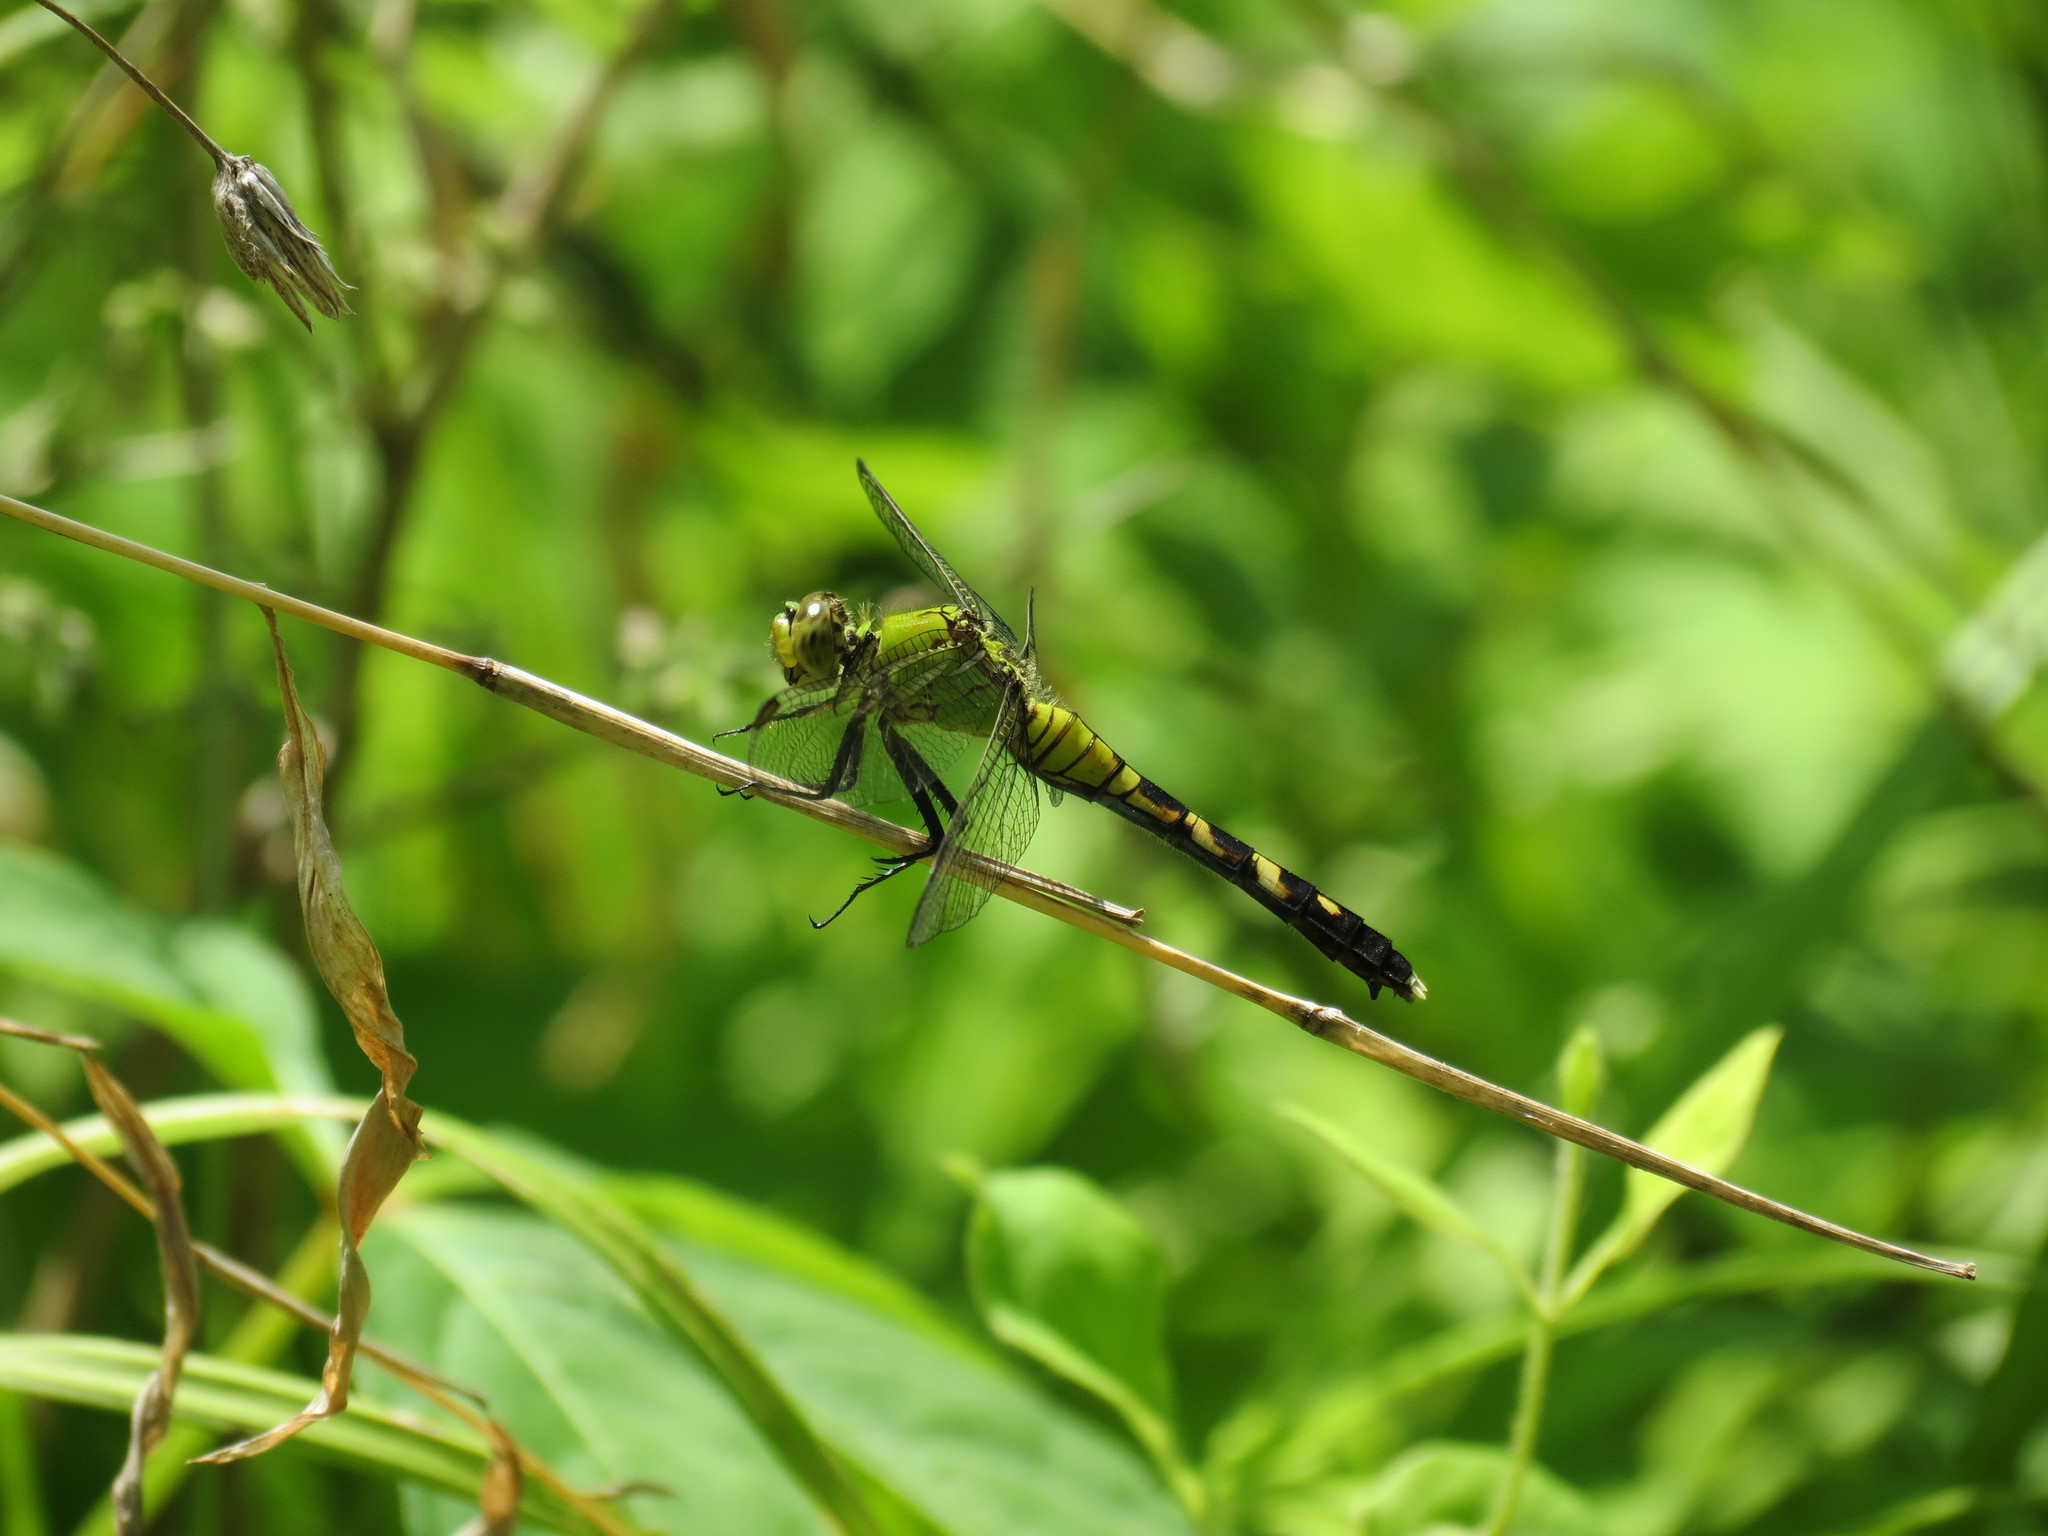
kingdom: Animalia
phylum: Arthropoda
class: Insecta
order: Odonata
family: Libellulidae
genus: Erythemis
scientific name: Erythemis simplicicollis
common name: Eastern pondhawk
